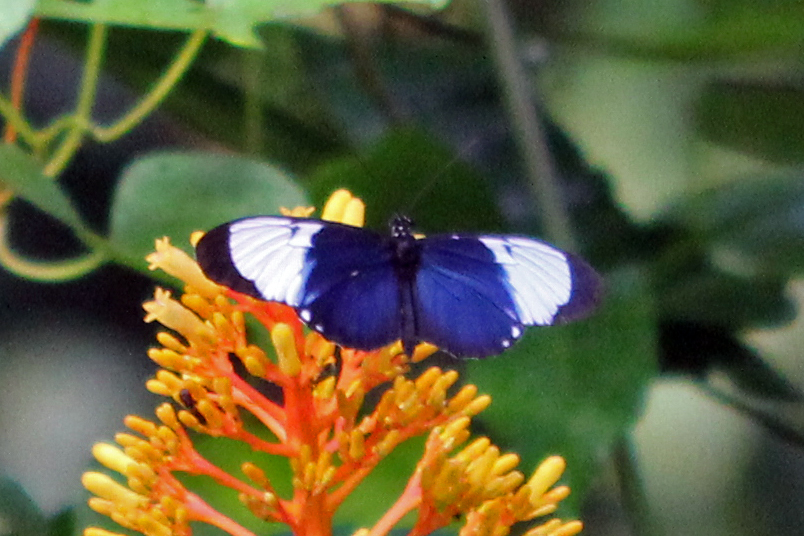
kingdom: Animalia
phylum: Arthropoda
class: Insecta
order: Lepidoptera
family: Nymphalidae
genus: Heliconius
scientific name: Heliconius cydno
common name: Cydno longwing
